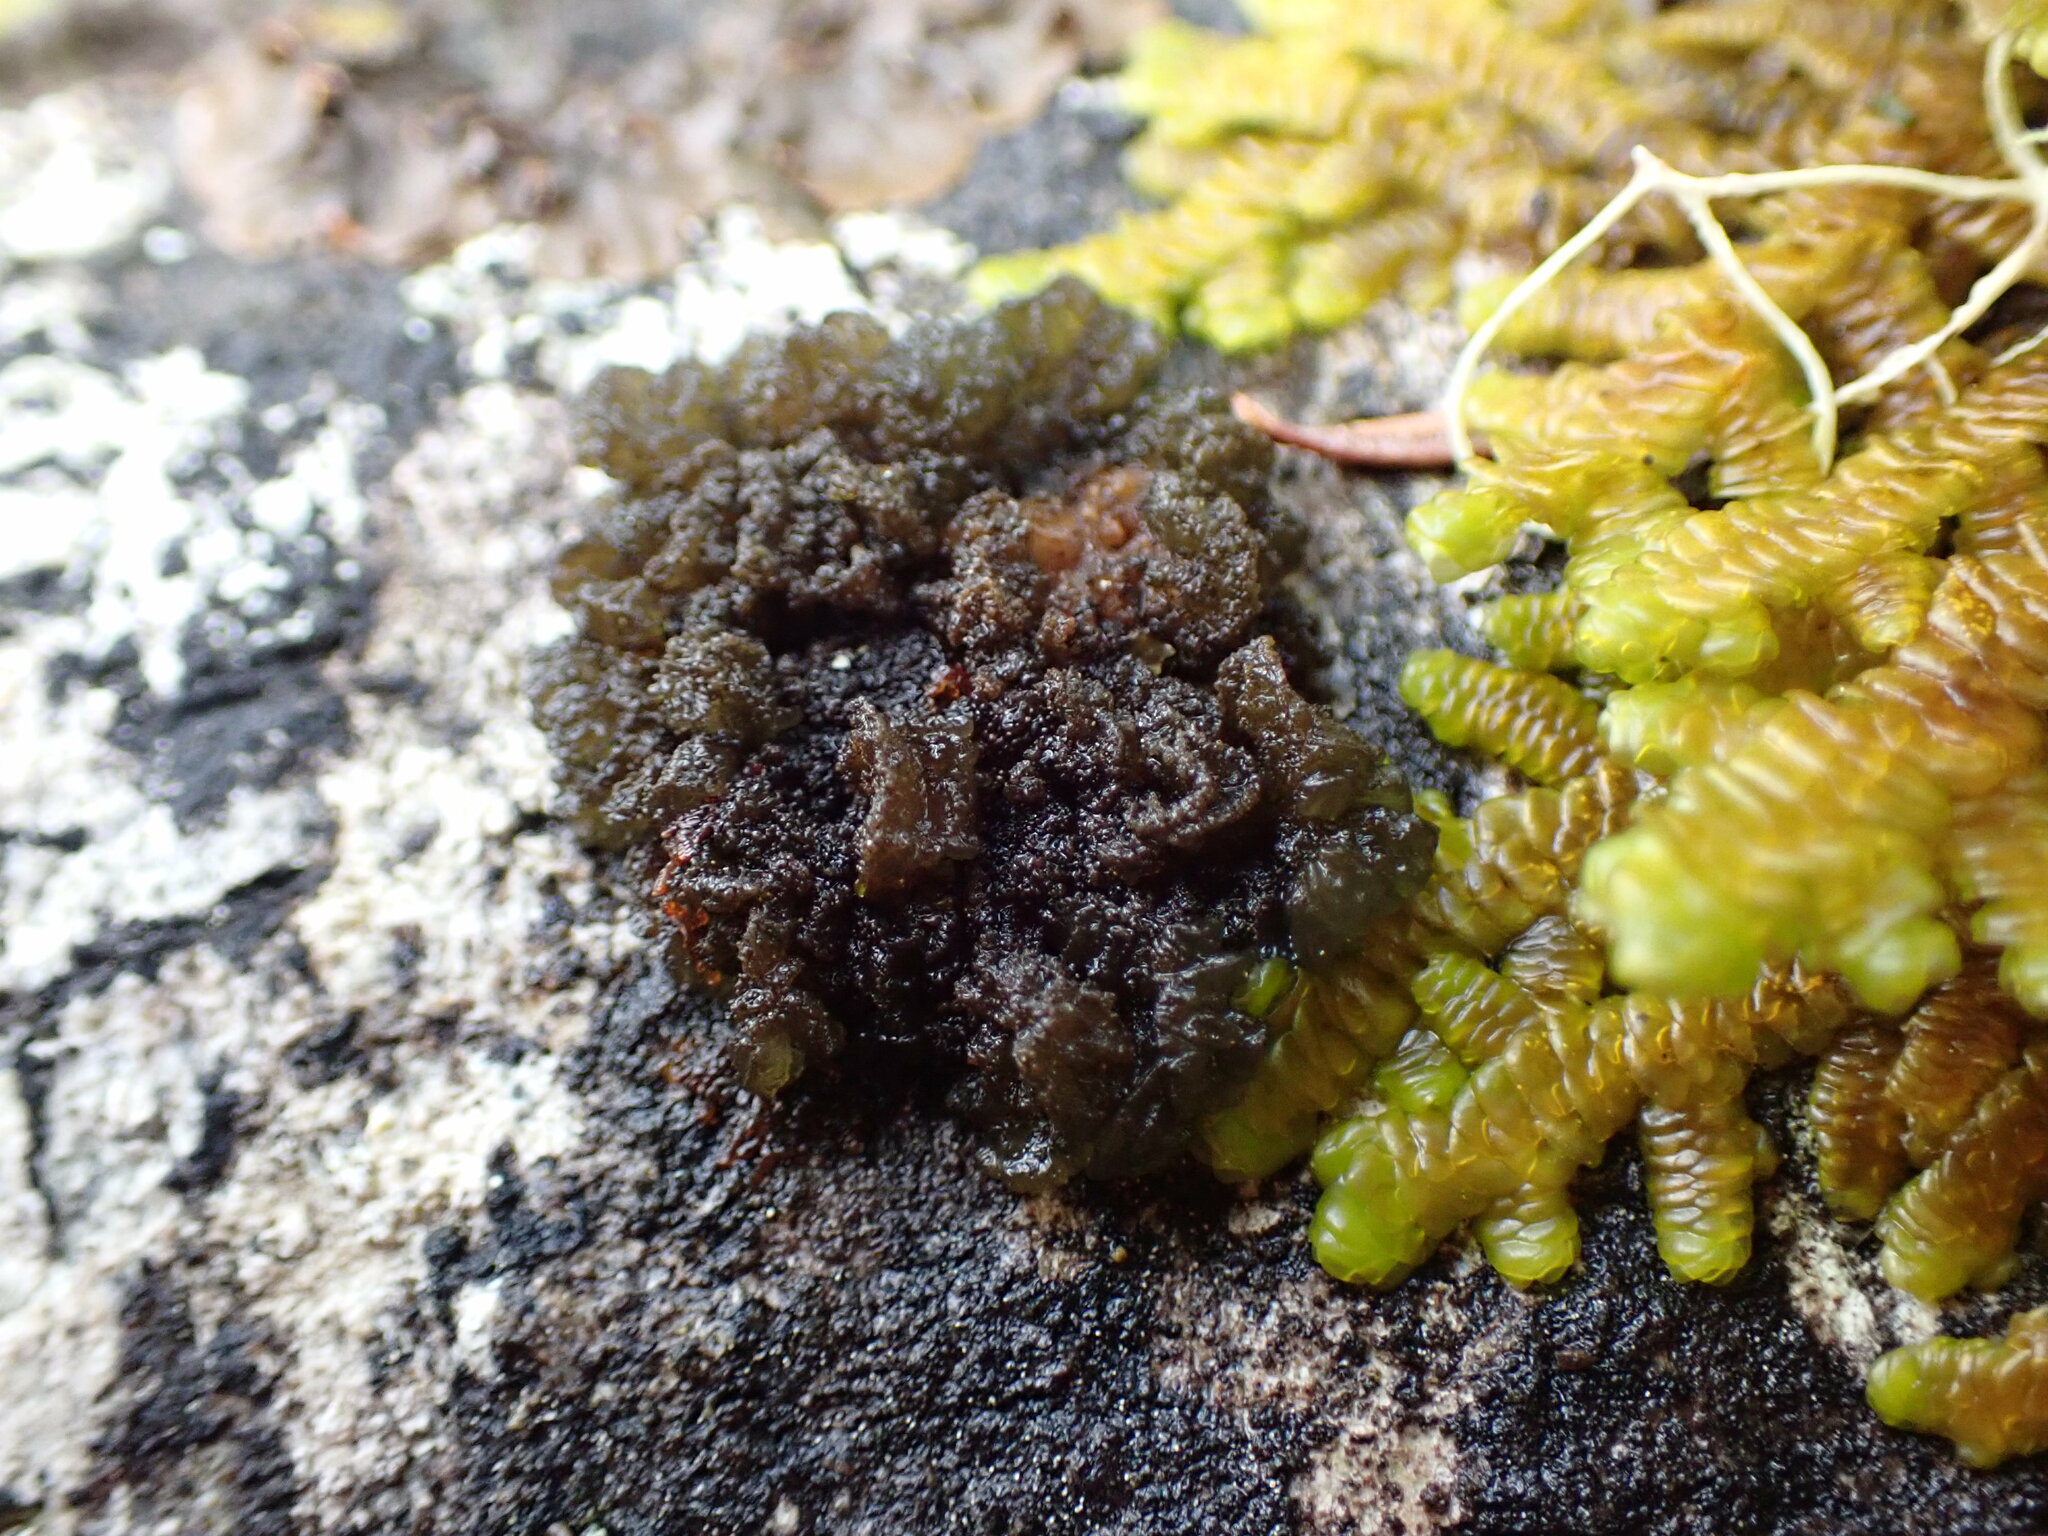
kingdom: Fungi
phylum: Ascomycota
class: Lecanoromycetes
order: Arctomiales
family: Arctomiaceae
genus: Arctomia
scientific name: Arctomia insignis
